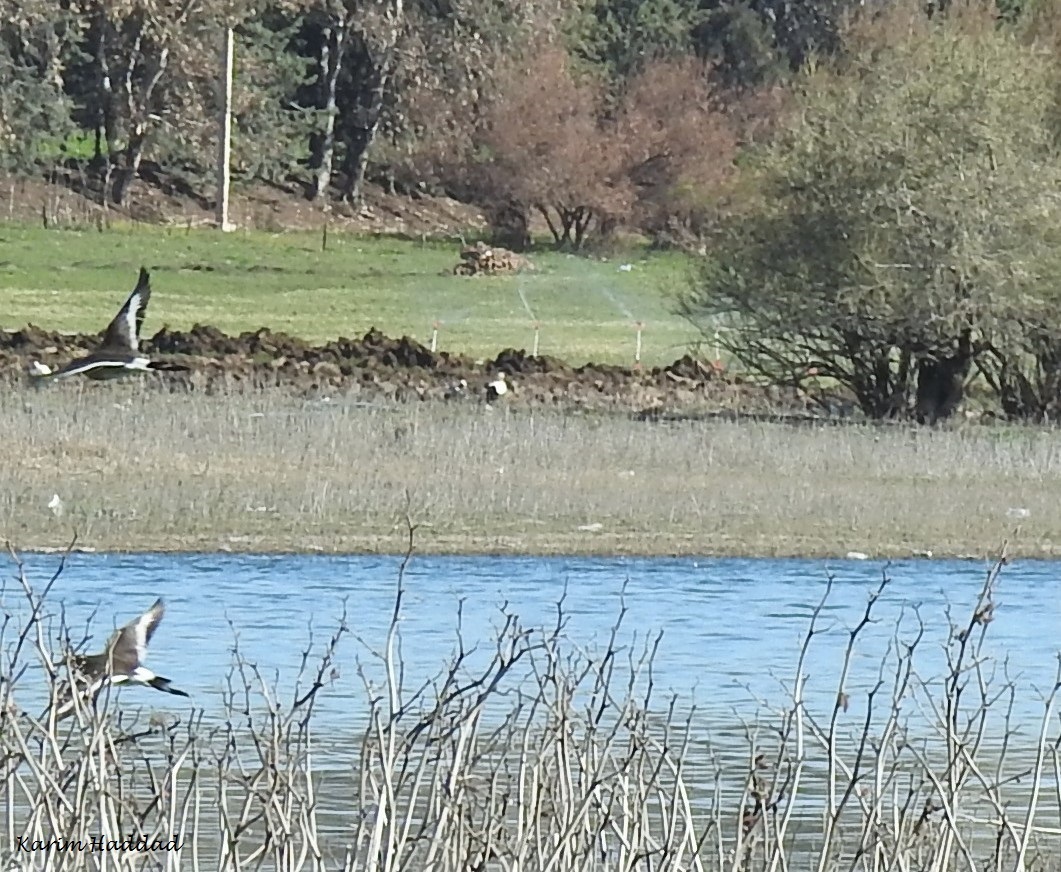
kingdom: Animalia
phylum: Chordata
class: Aves
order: Charadriiformes
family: Scolopacidae
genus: Limosa
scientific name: Limosa limosa
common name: Black-tailed godwit
